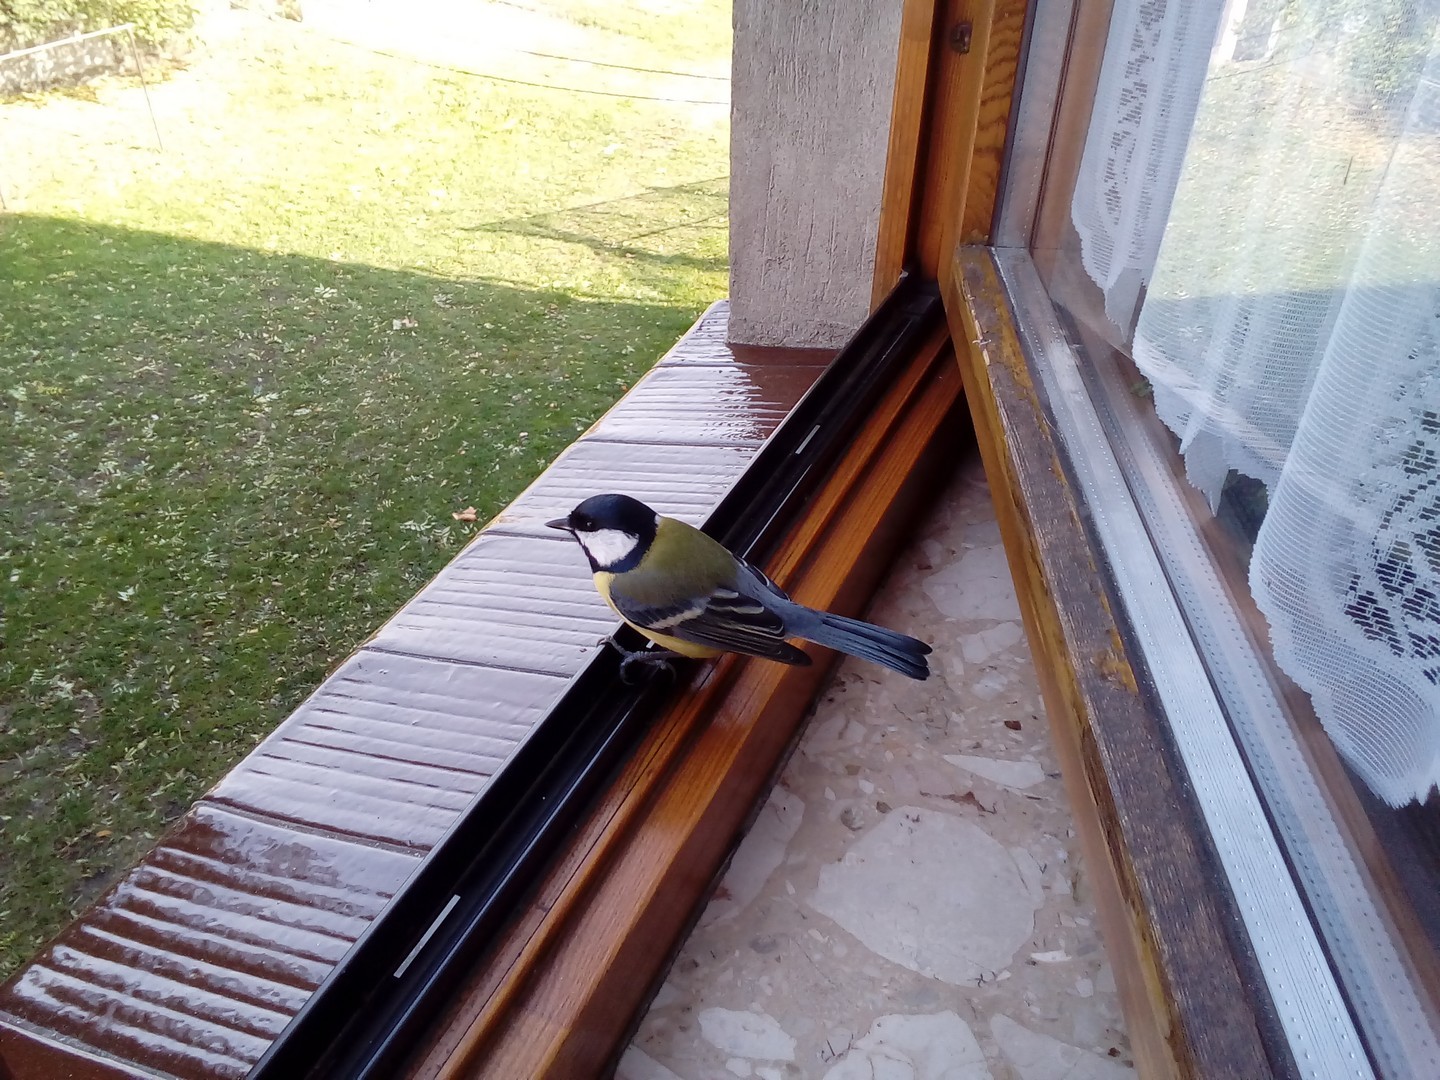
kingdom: Animalia
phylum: Chordata
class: Aves
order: Passeriformes
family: Paridae
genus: Parus
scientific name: Parus major
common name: Great tit
